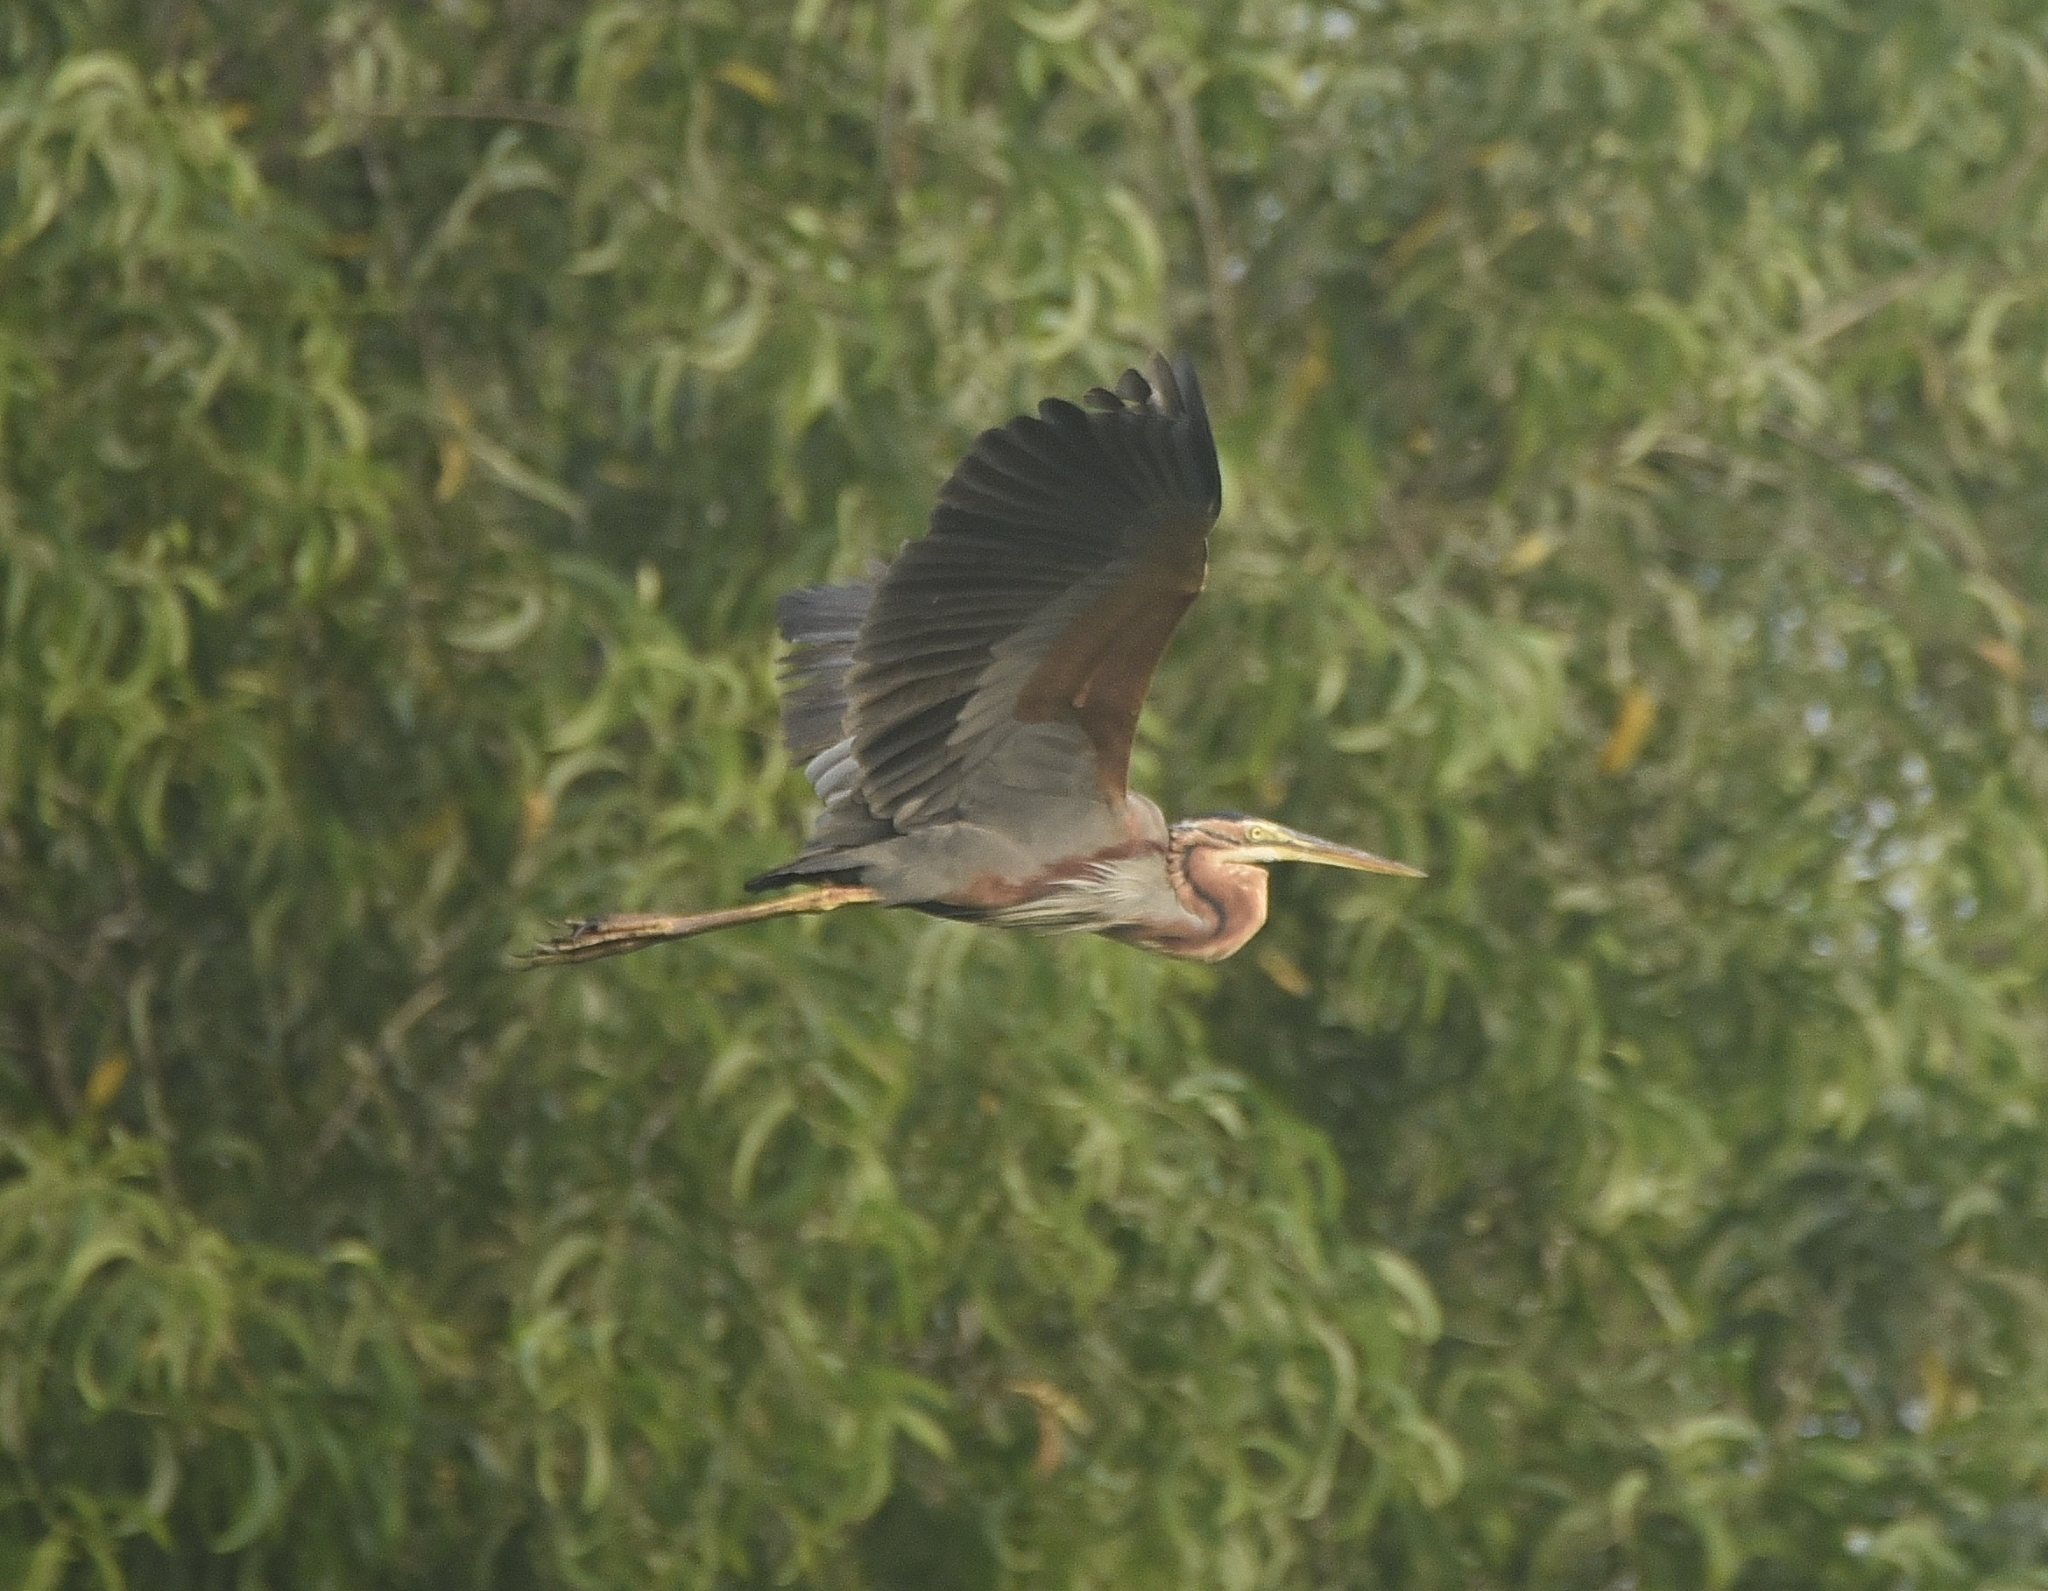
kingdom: Animalia
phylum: Chordata
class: Aves
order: Pelecaniformes
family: Ardeidae
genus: Ardea
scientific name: Ardea purpurea
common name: Purple heron
